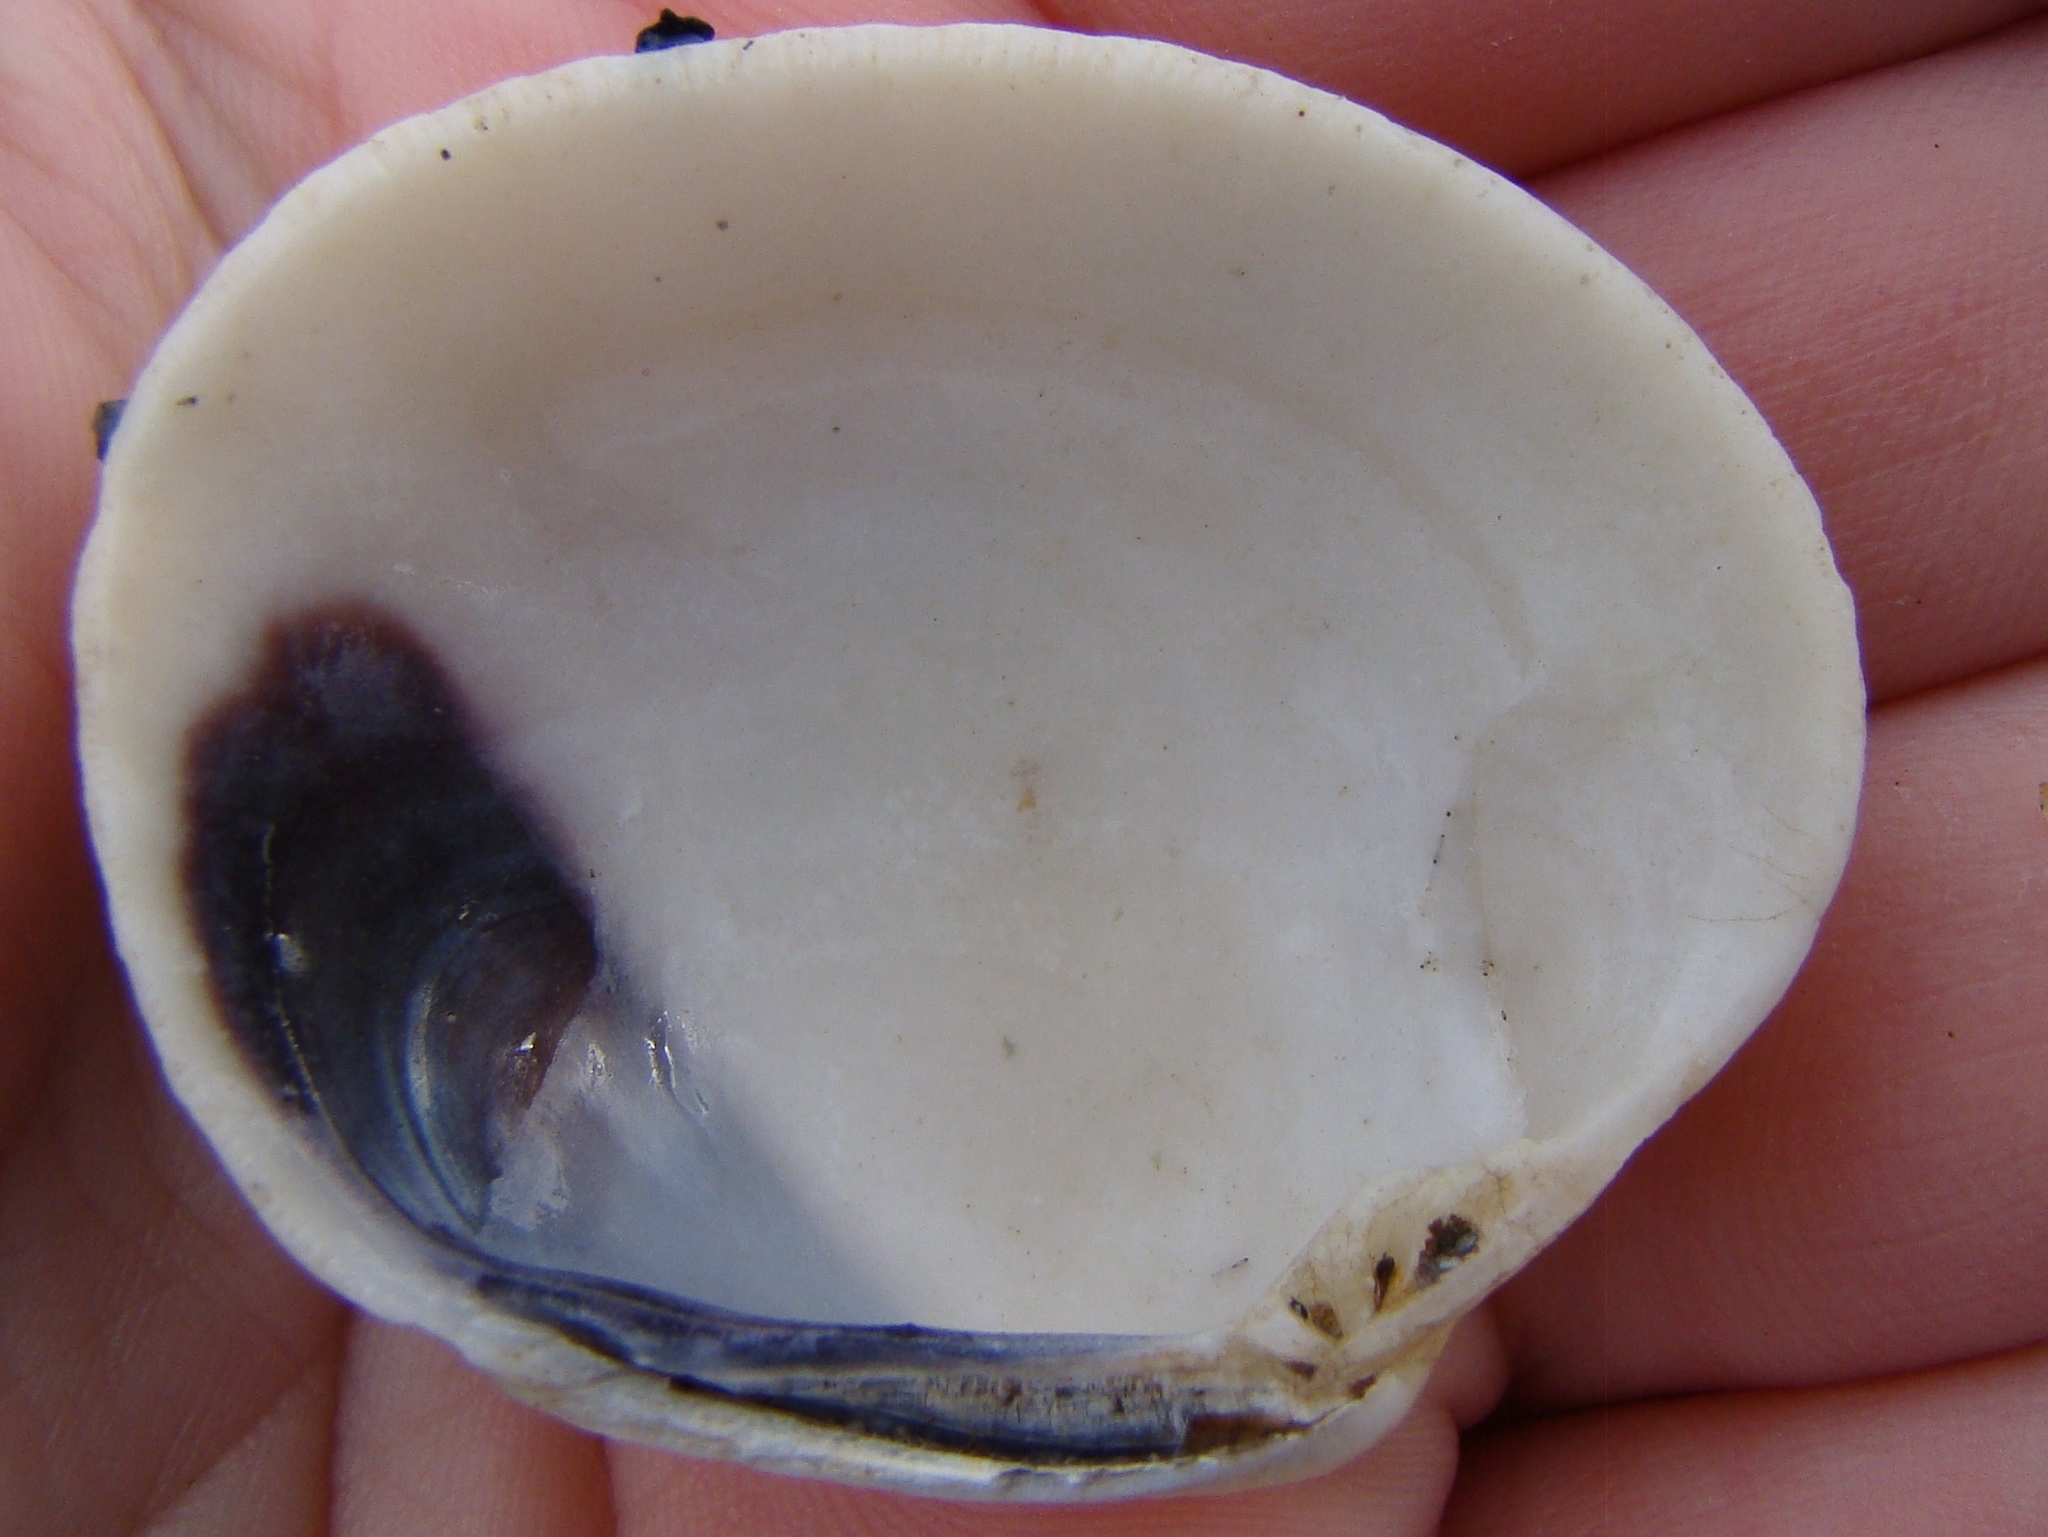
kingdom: Animalia
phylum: Mollusca
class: Bivalvia
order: Venerida
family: Veneridae
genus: Leukoma
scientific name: Leukoma crassicosta
